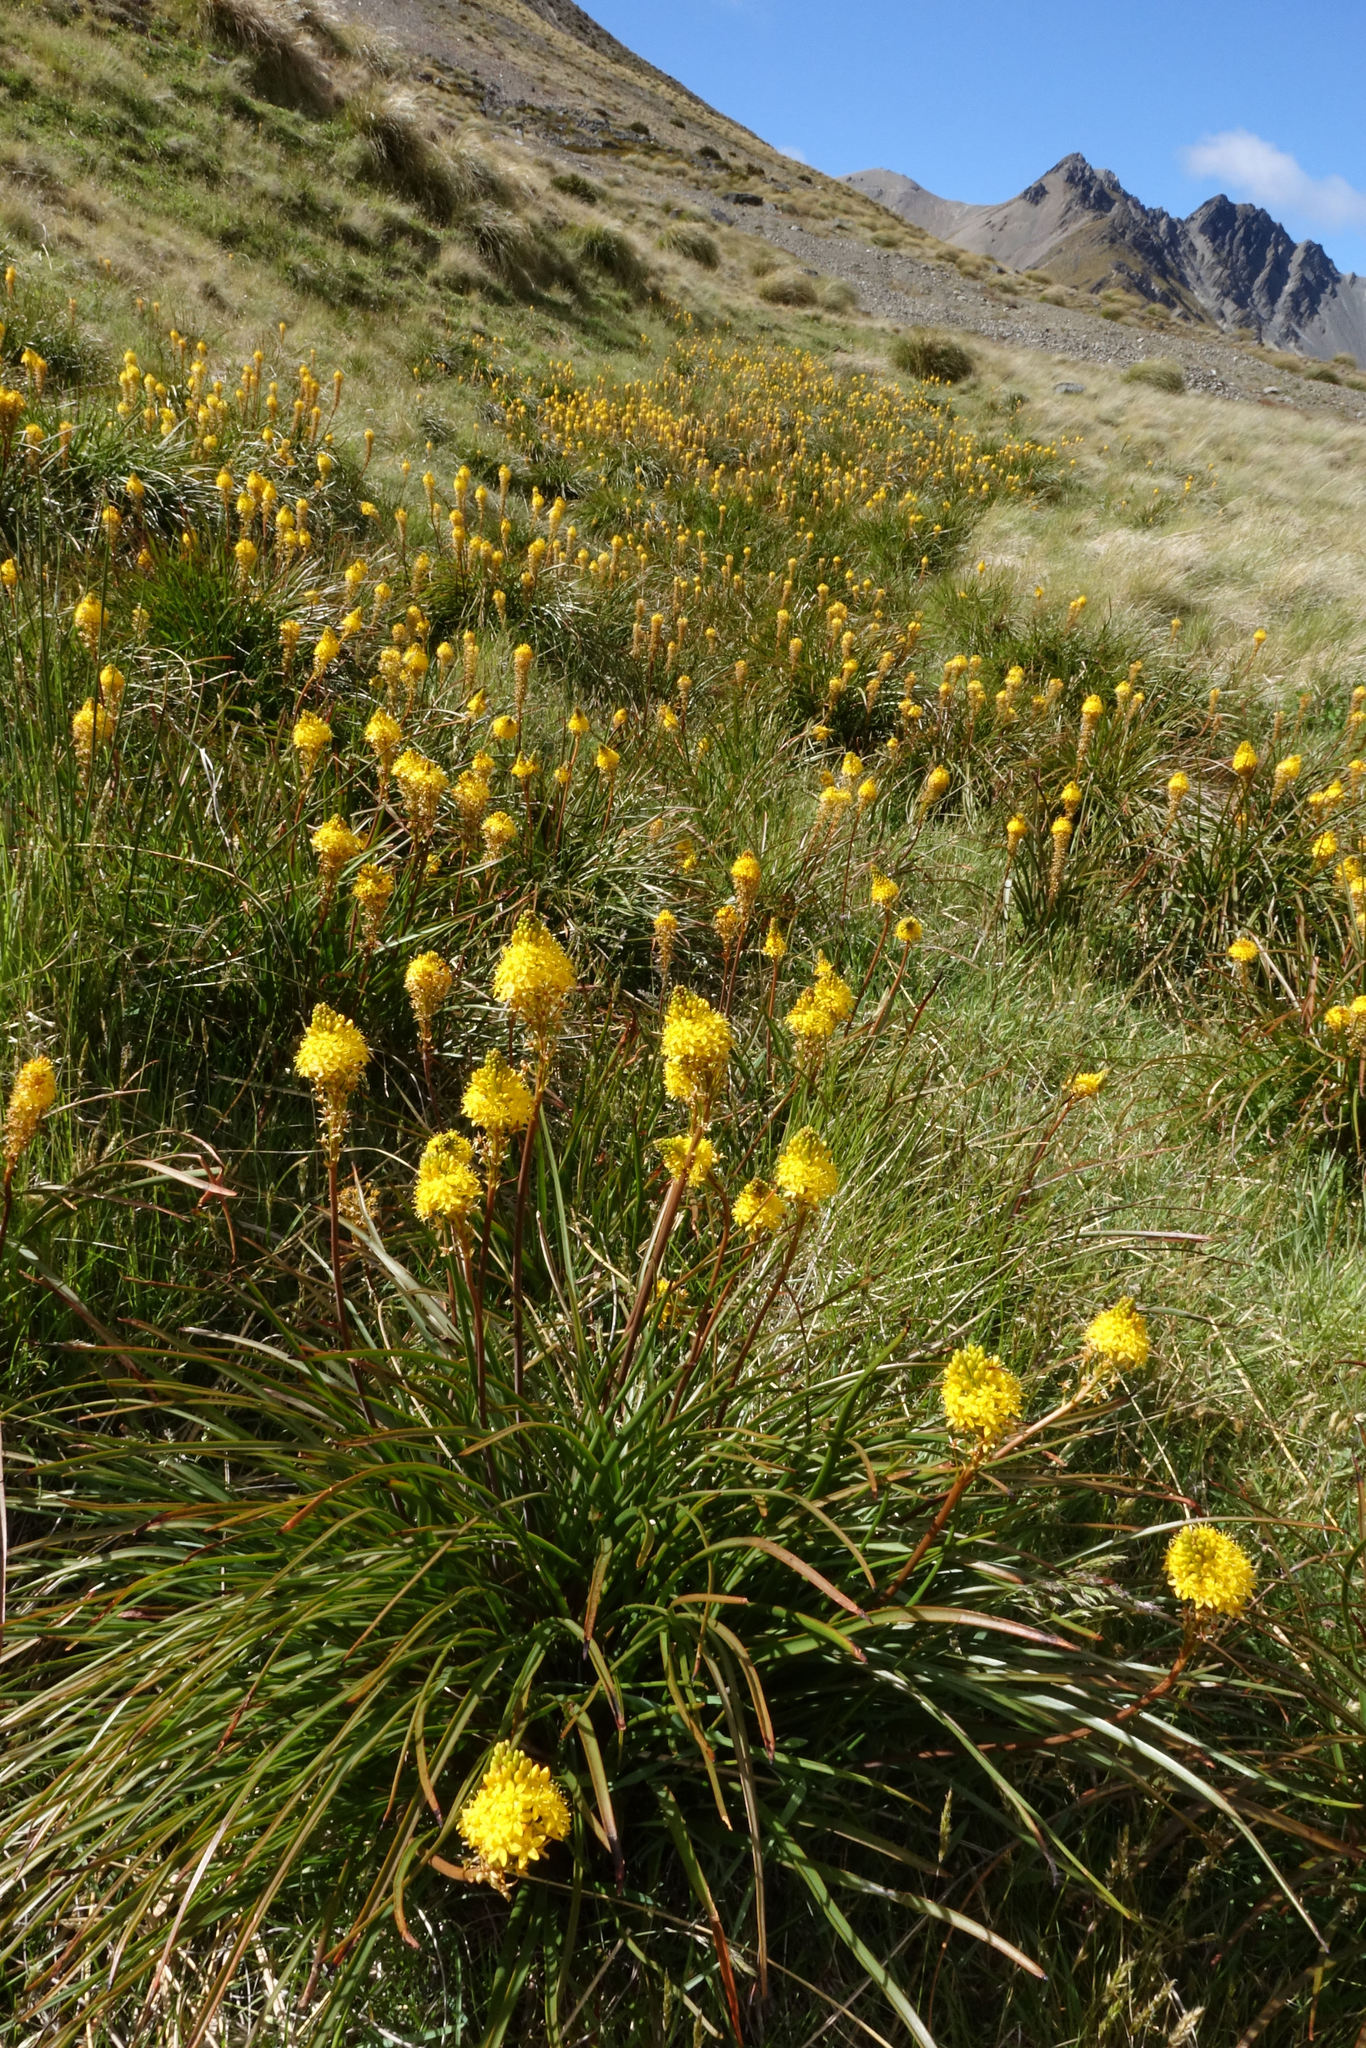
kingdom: Plantae
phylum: Tracheophyta
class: Liliopsida
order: Asparagales
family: Asphodelaceae
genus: Bulbinella
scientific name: Bulbinella angustifolia
